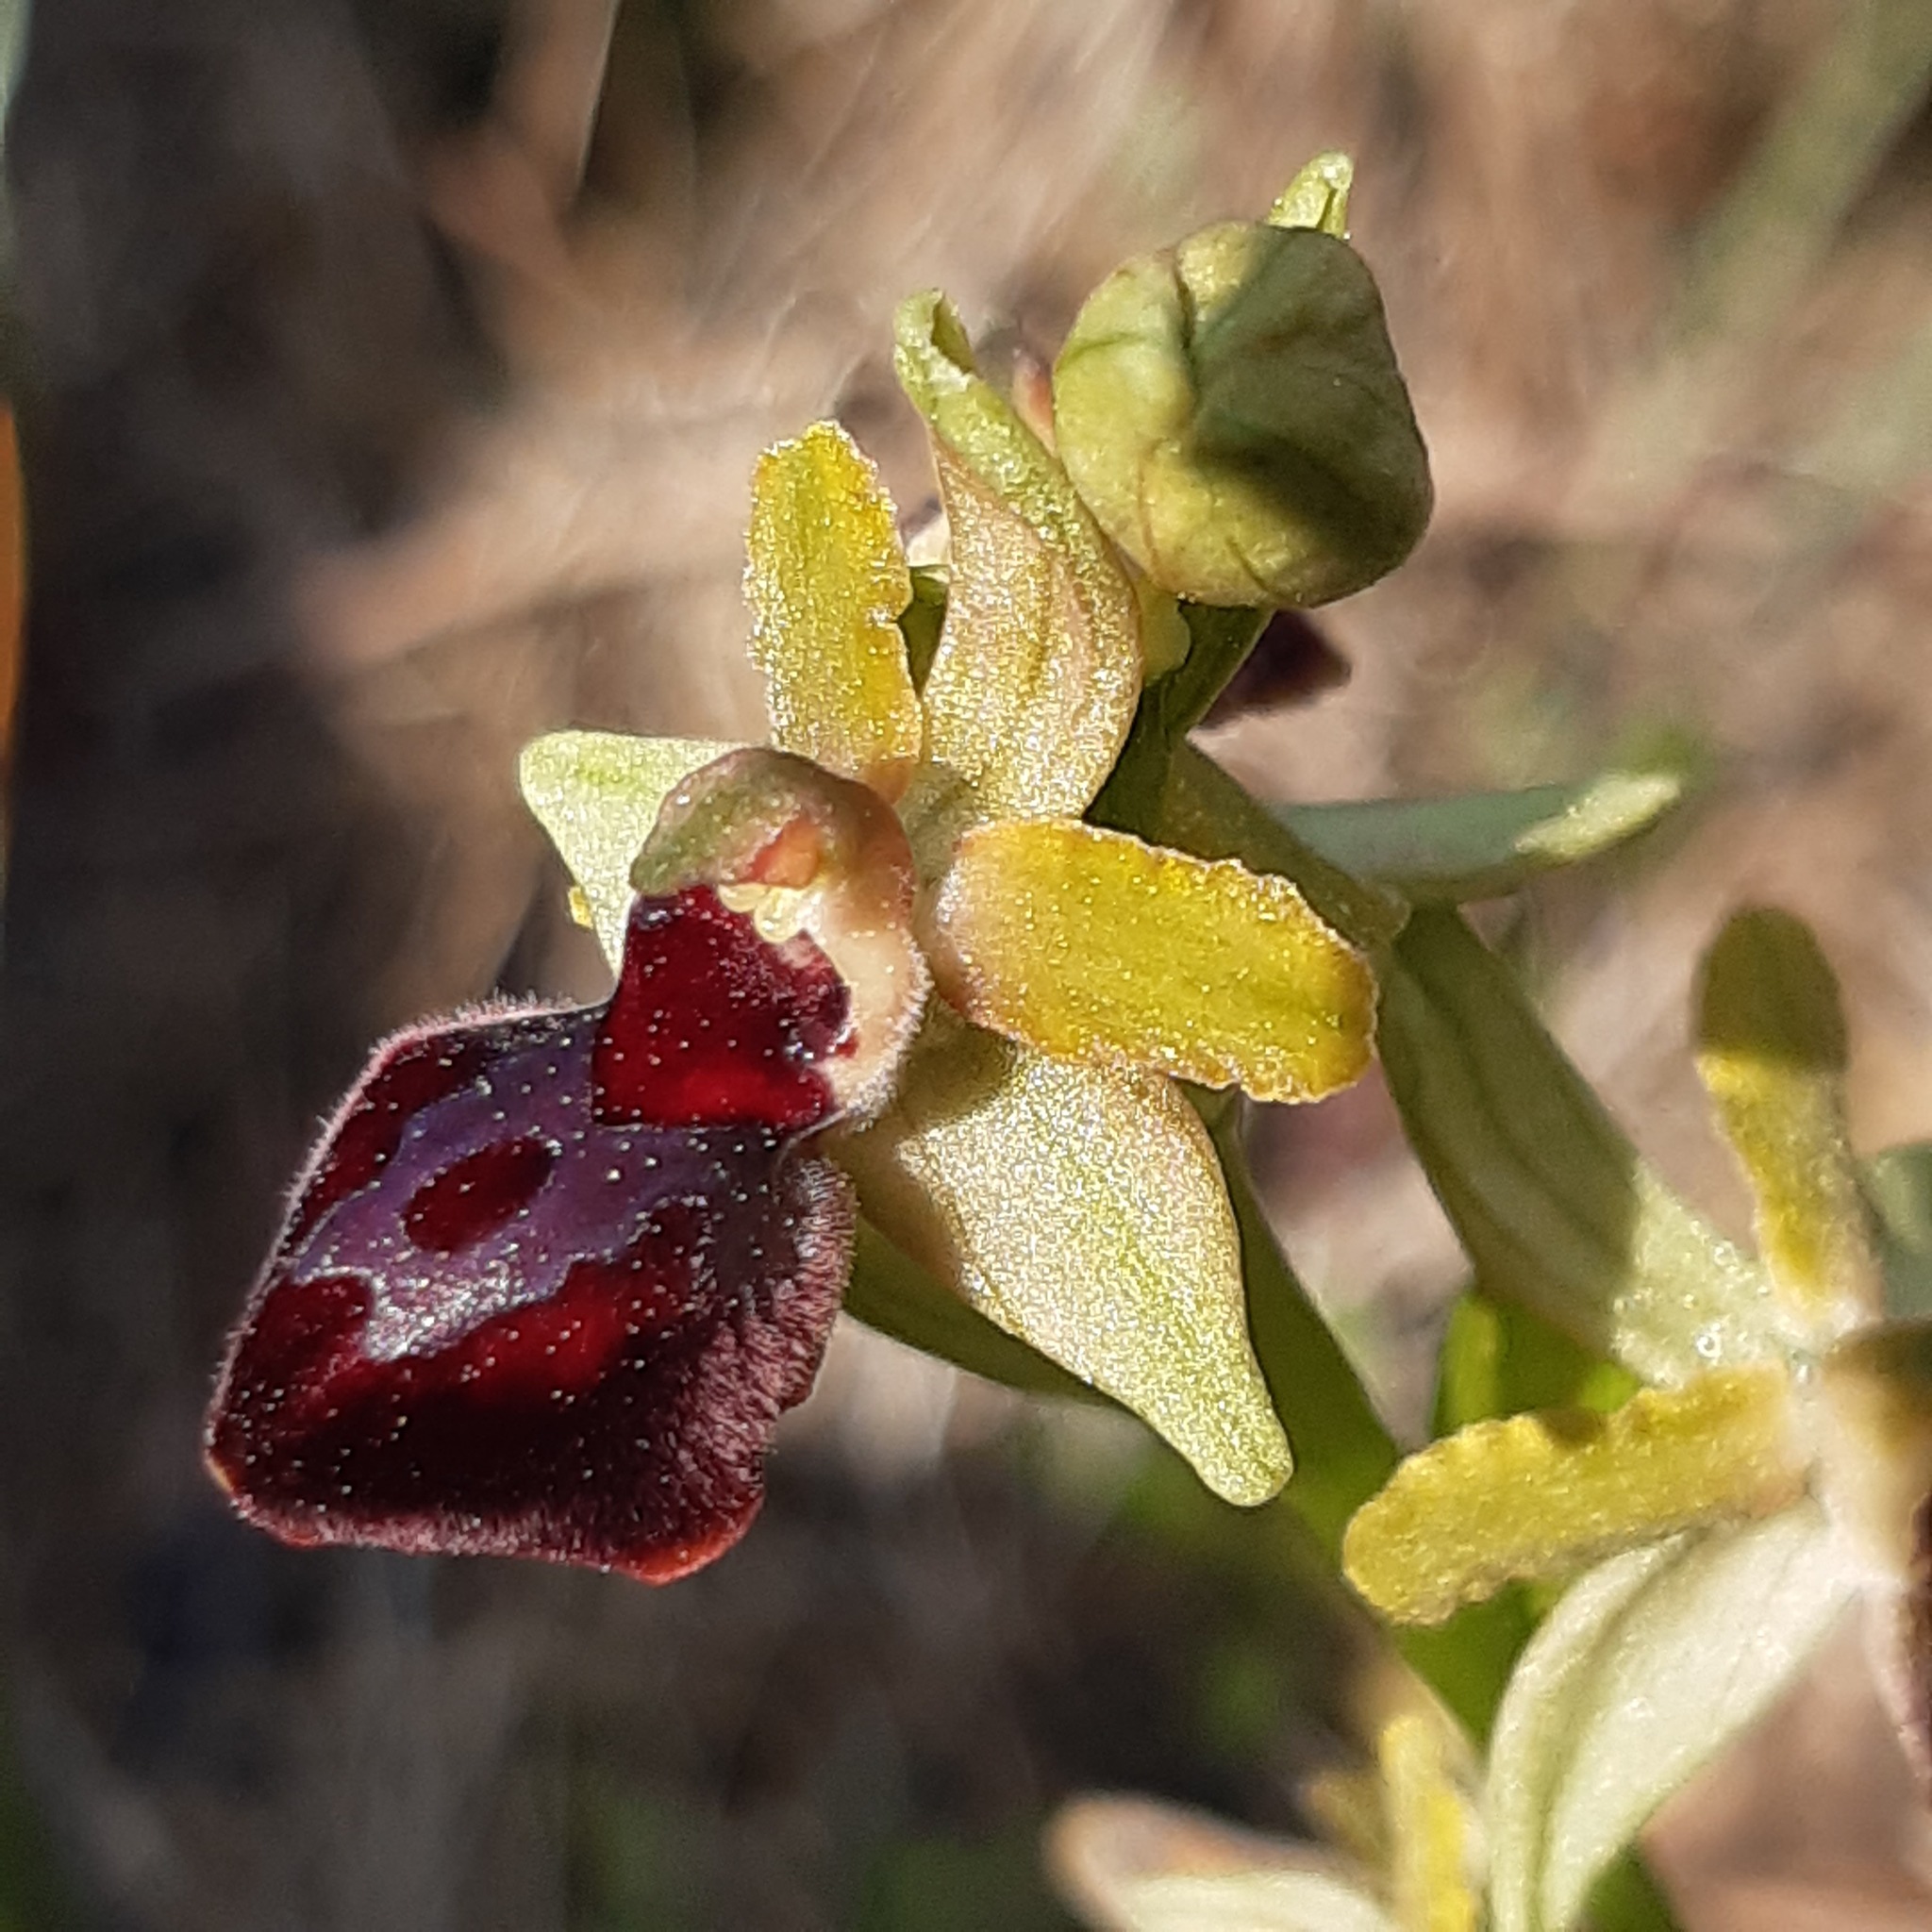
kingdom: Plantae
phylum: Tracheophyta
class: Liliopsida
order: Asparagales
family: Orchidaceae
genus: Ophrys
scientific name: Ophrys sphegodes
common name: Early spider-orchid
